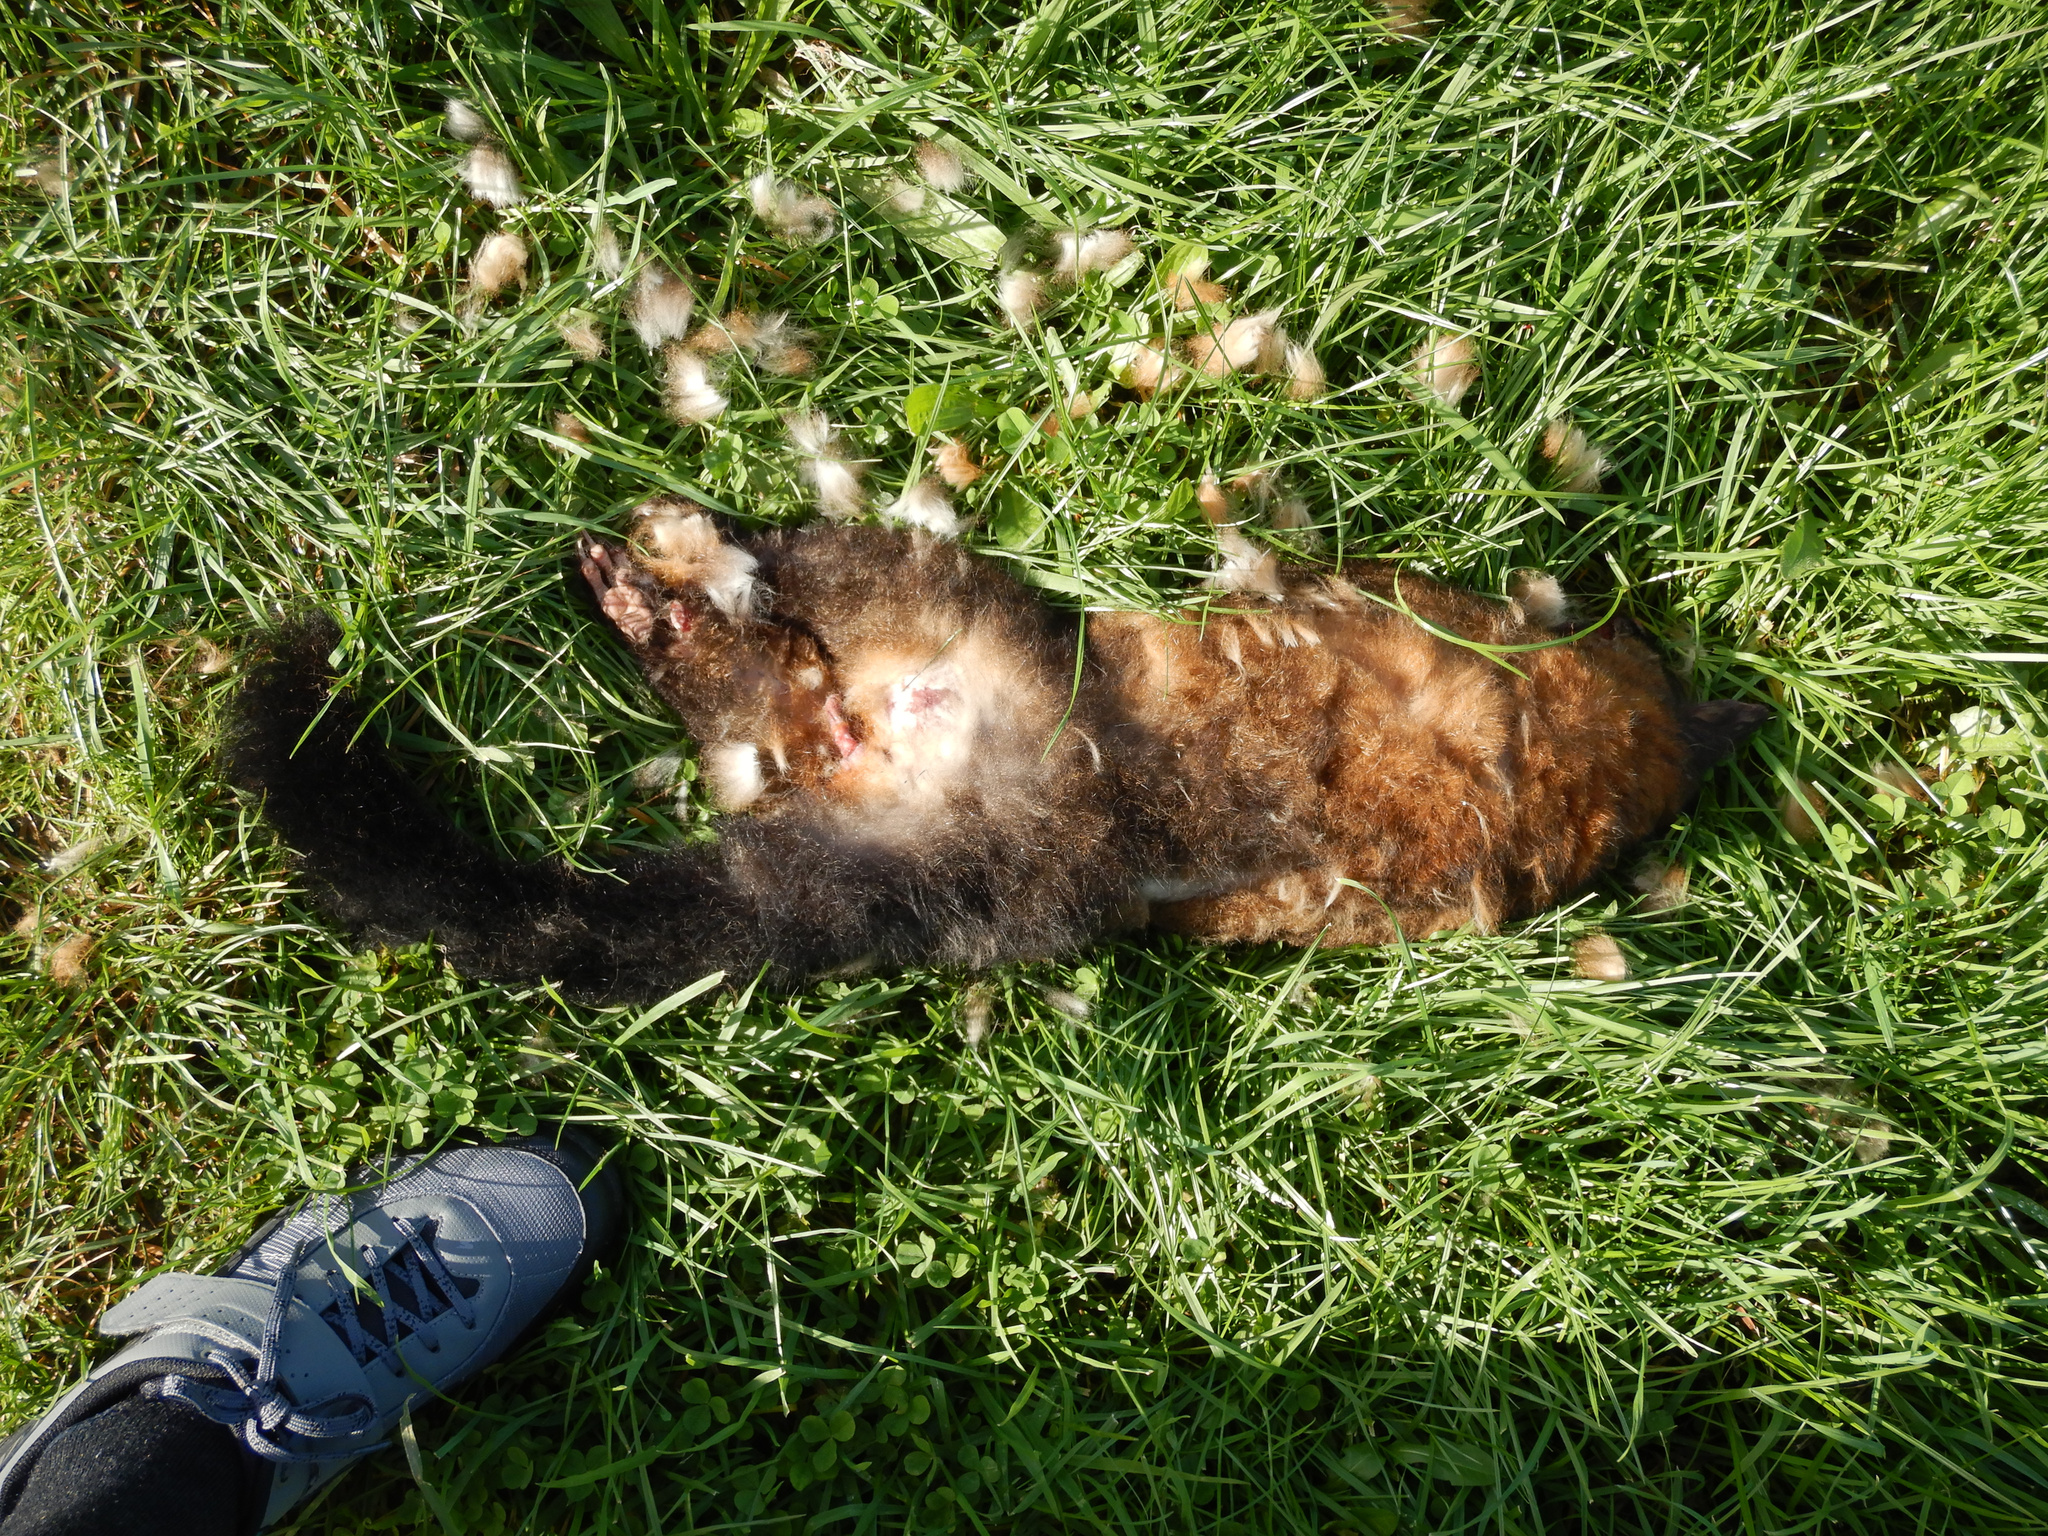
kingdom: Animalia
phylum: Chordata
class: Mammalia
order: Diprotodontia
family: Phalangeridae
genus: Trichosurus
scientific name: Trichosurus vulpecula
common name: Common brushtail
